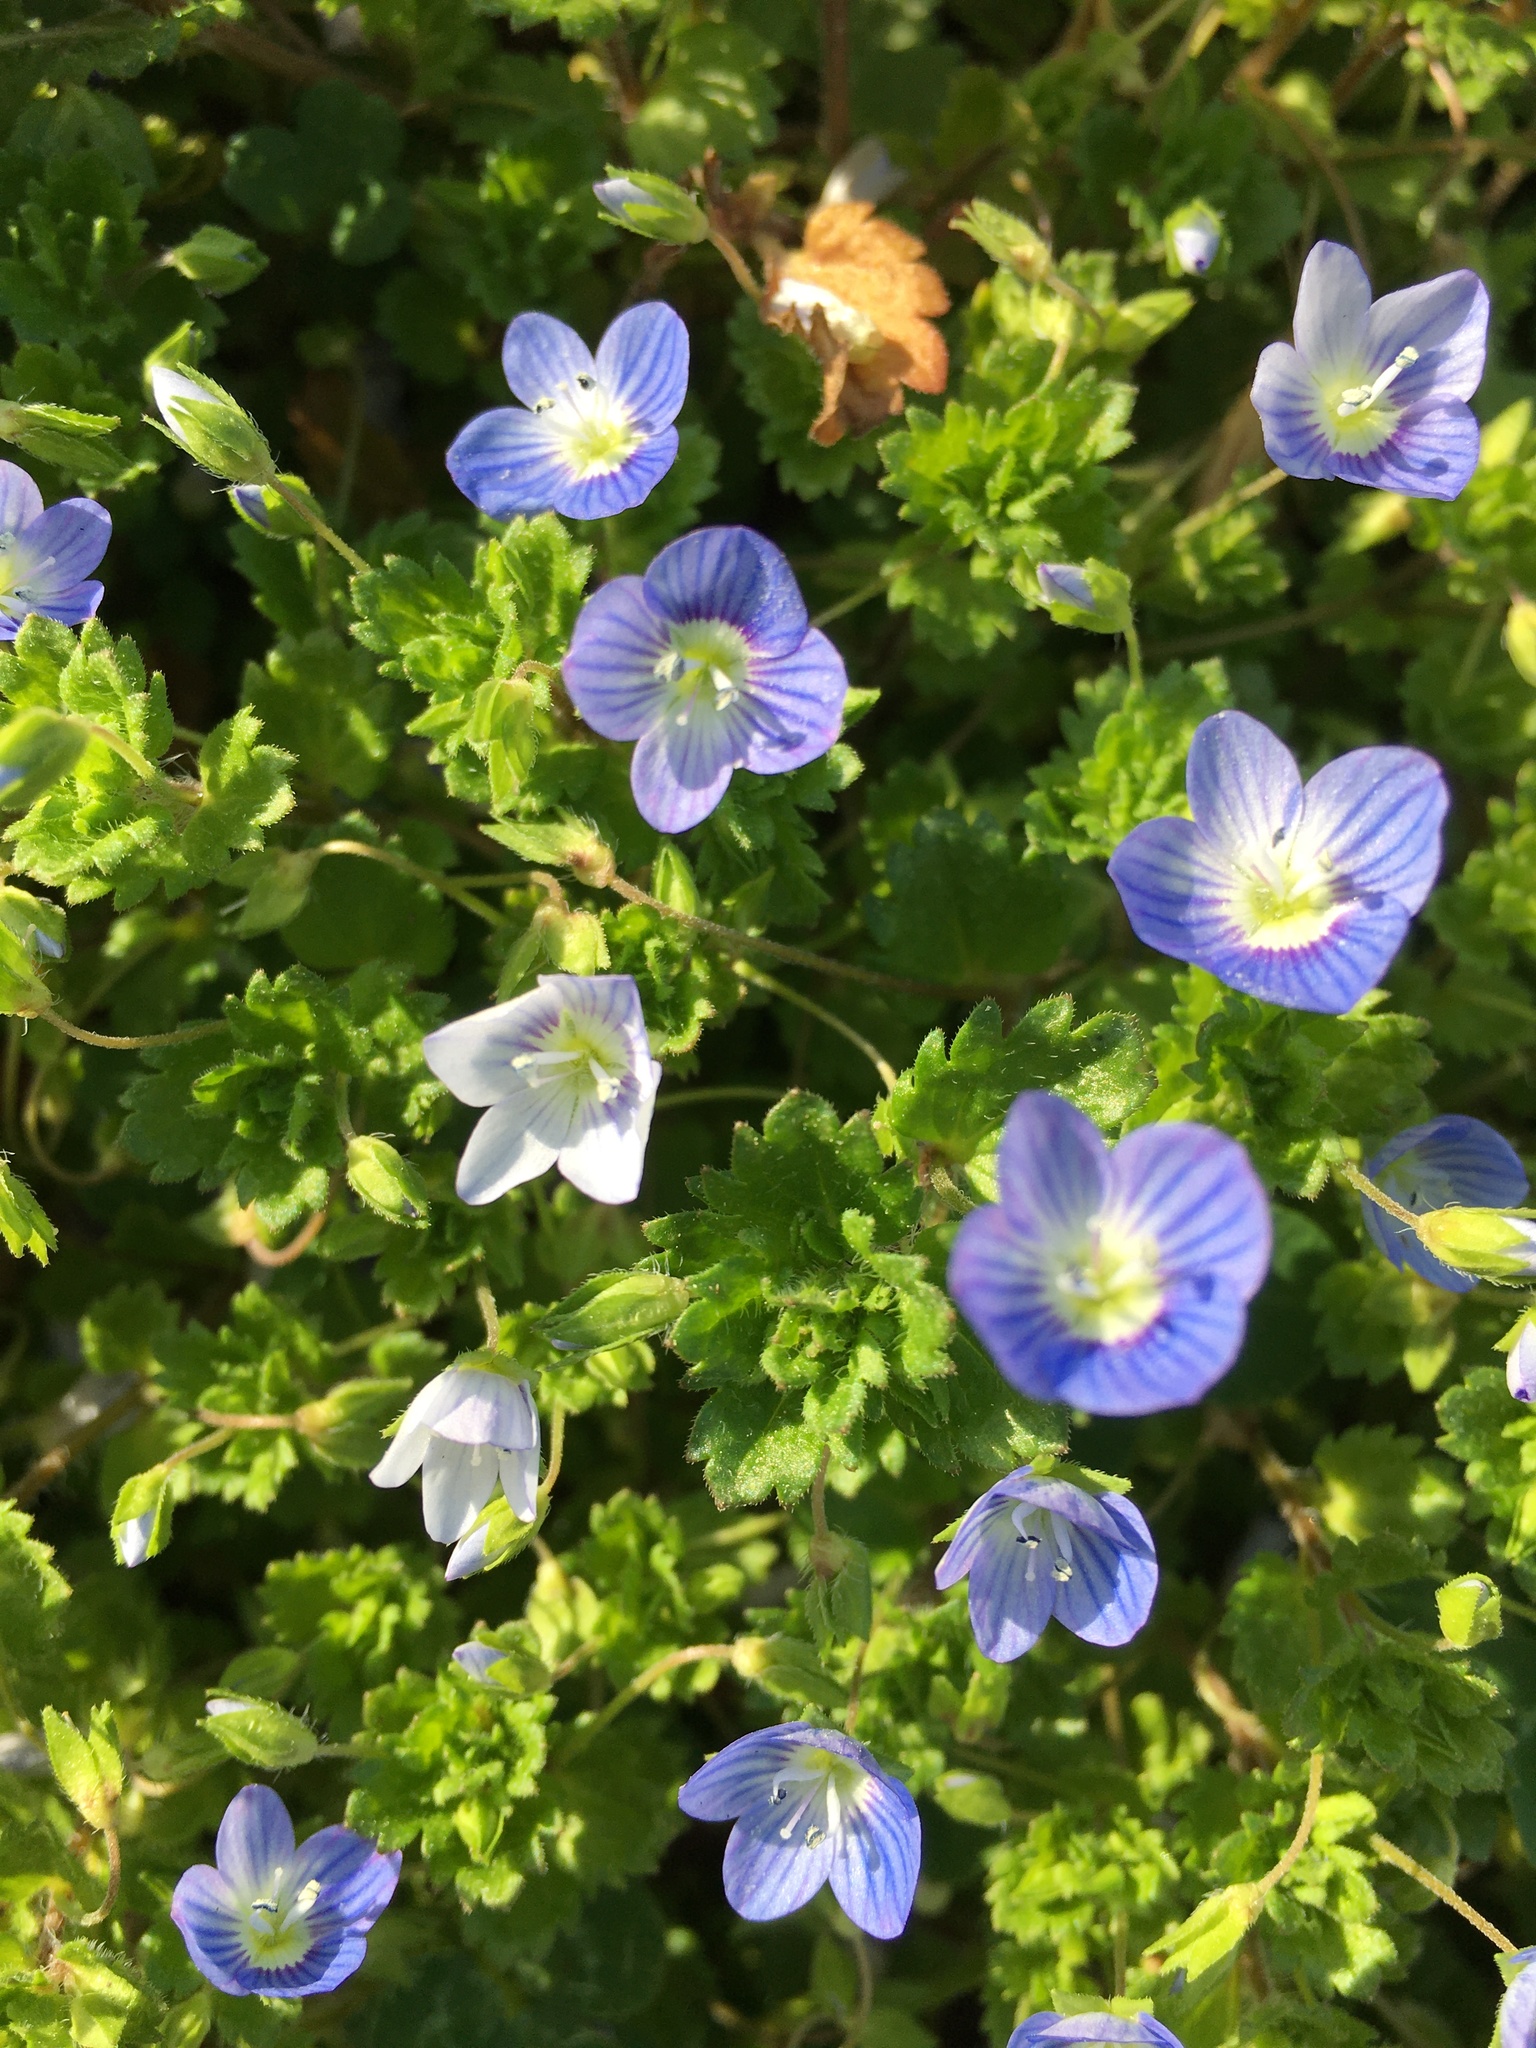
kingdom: Plantae
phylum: Tracheophyta
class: Magnoliopsida
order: Lamiales
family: Plantaginaceae
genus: Veronica
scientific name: Veronica persica
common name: Common field-speedwell
